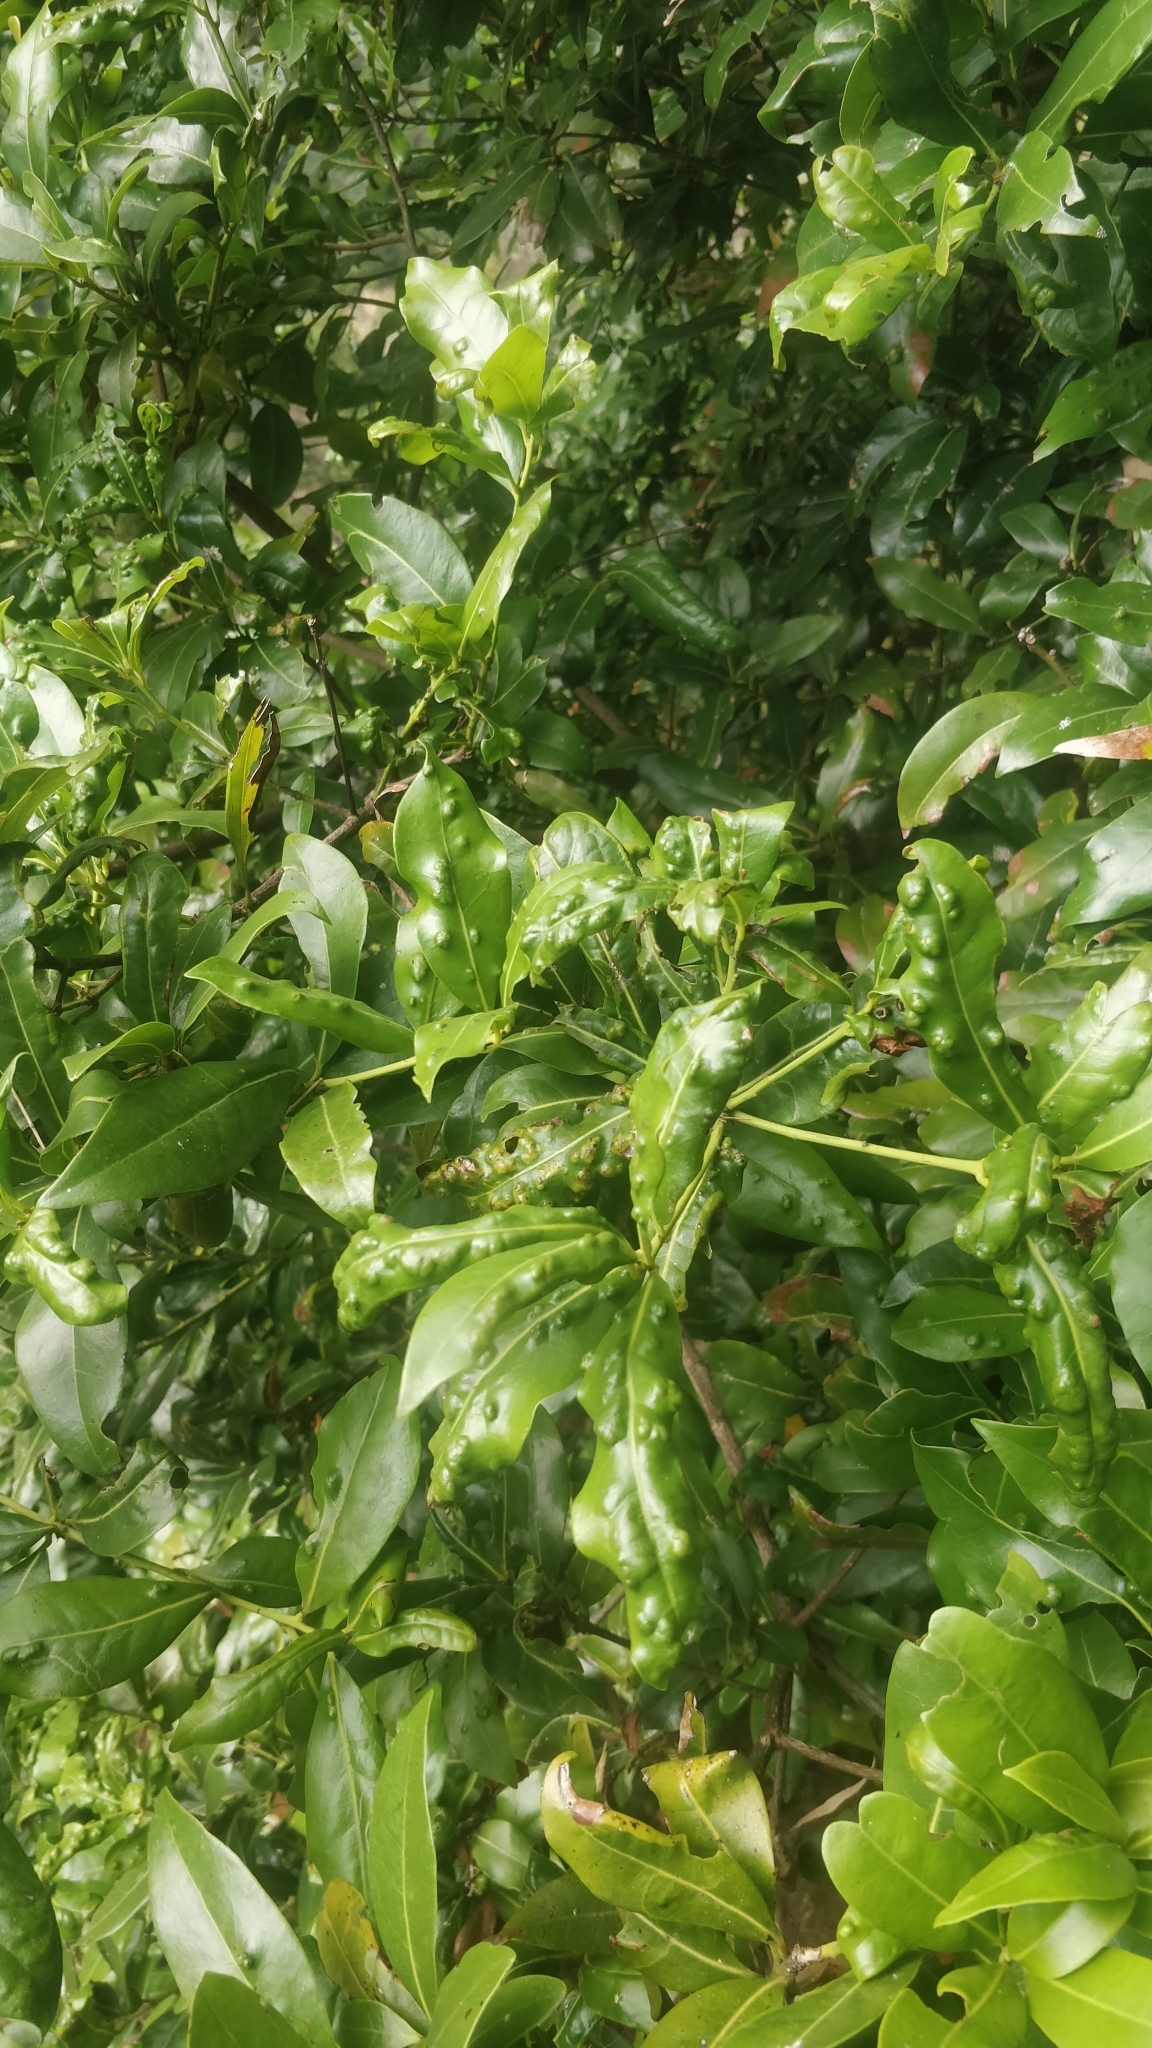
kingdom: Plantae
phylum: Tracheophyta
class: Magnoliopsida
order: Laurales
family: Lauraceae
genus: Apollonias
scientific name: Apollonias barbujana
